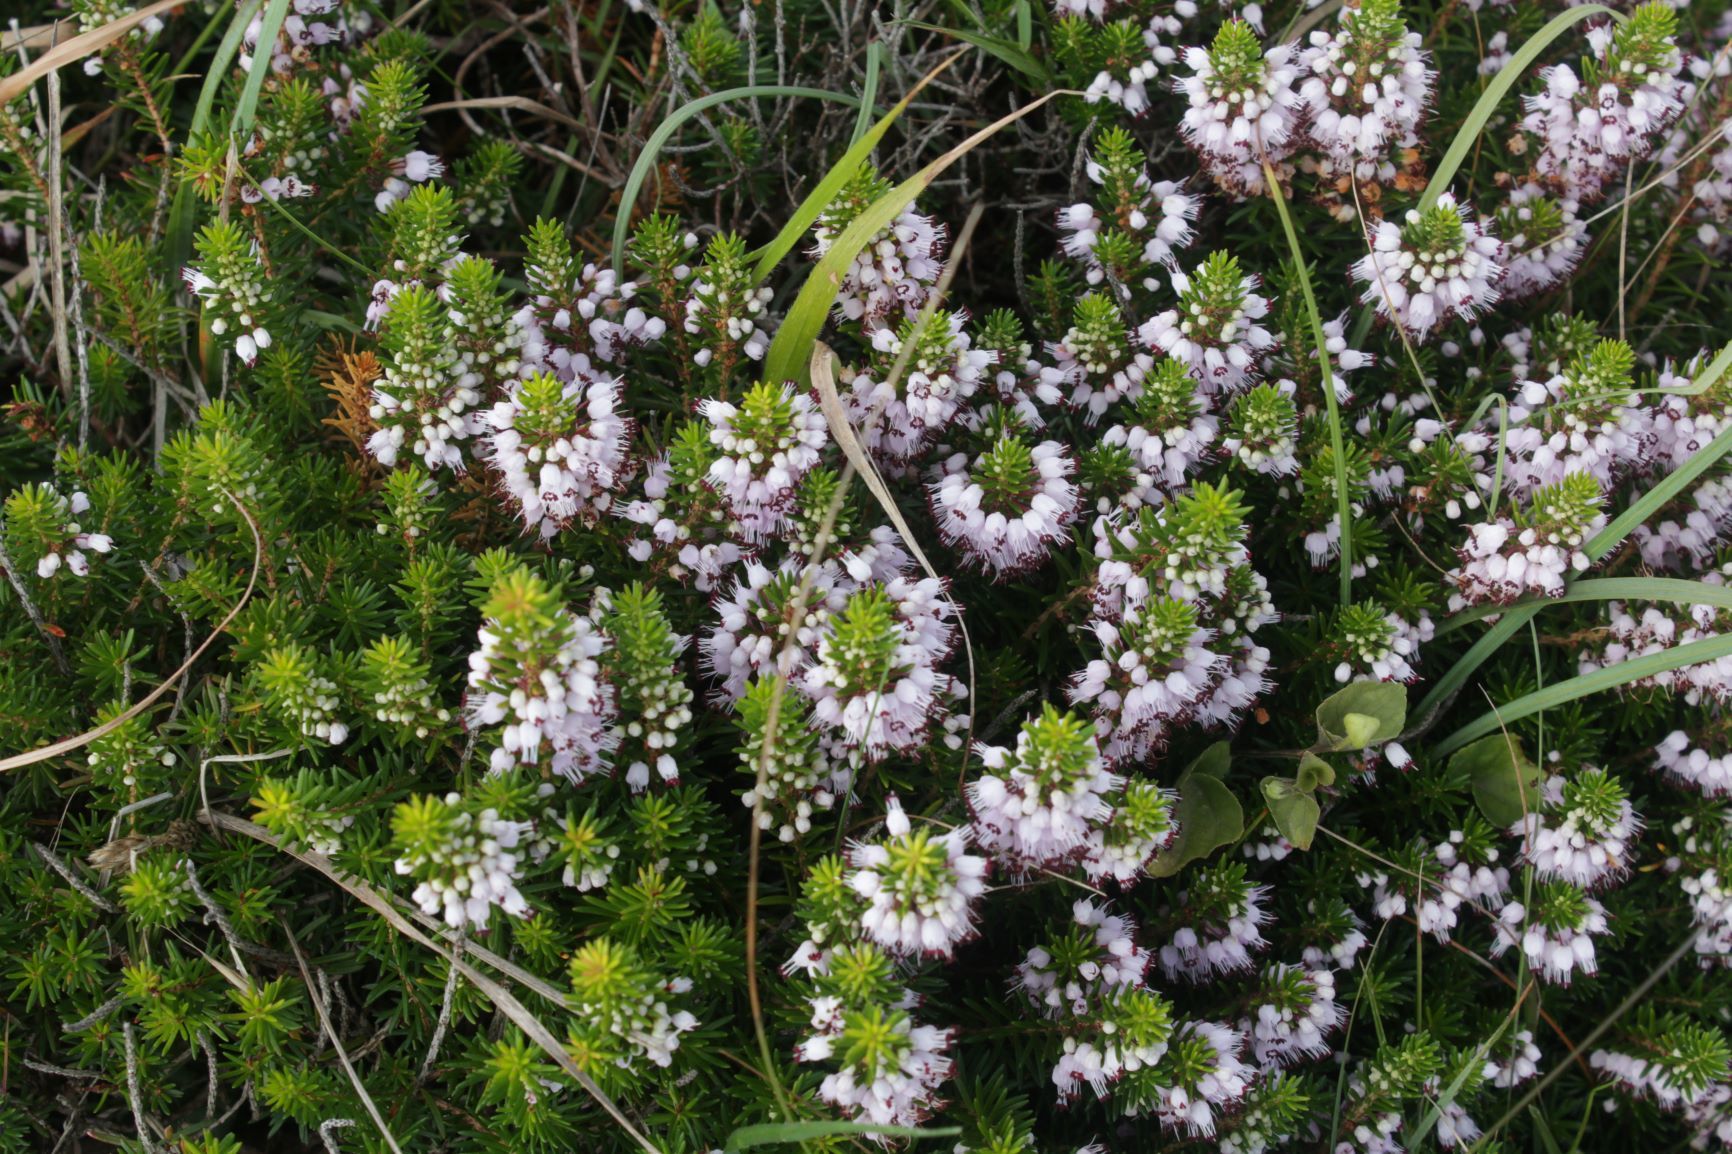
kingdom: Plantae
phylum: Tracheophyta
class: Magnoliopsida
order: Ericales
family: Ericaceae
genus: Erica
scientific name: Erica vagans
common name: Cornish heath
